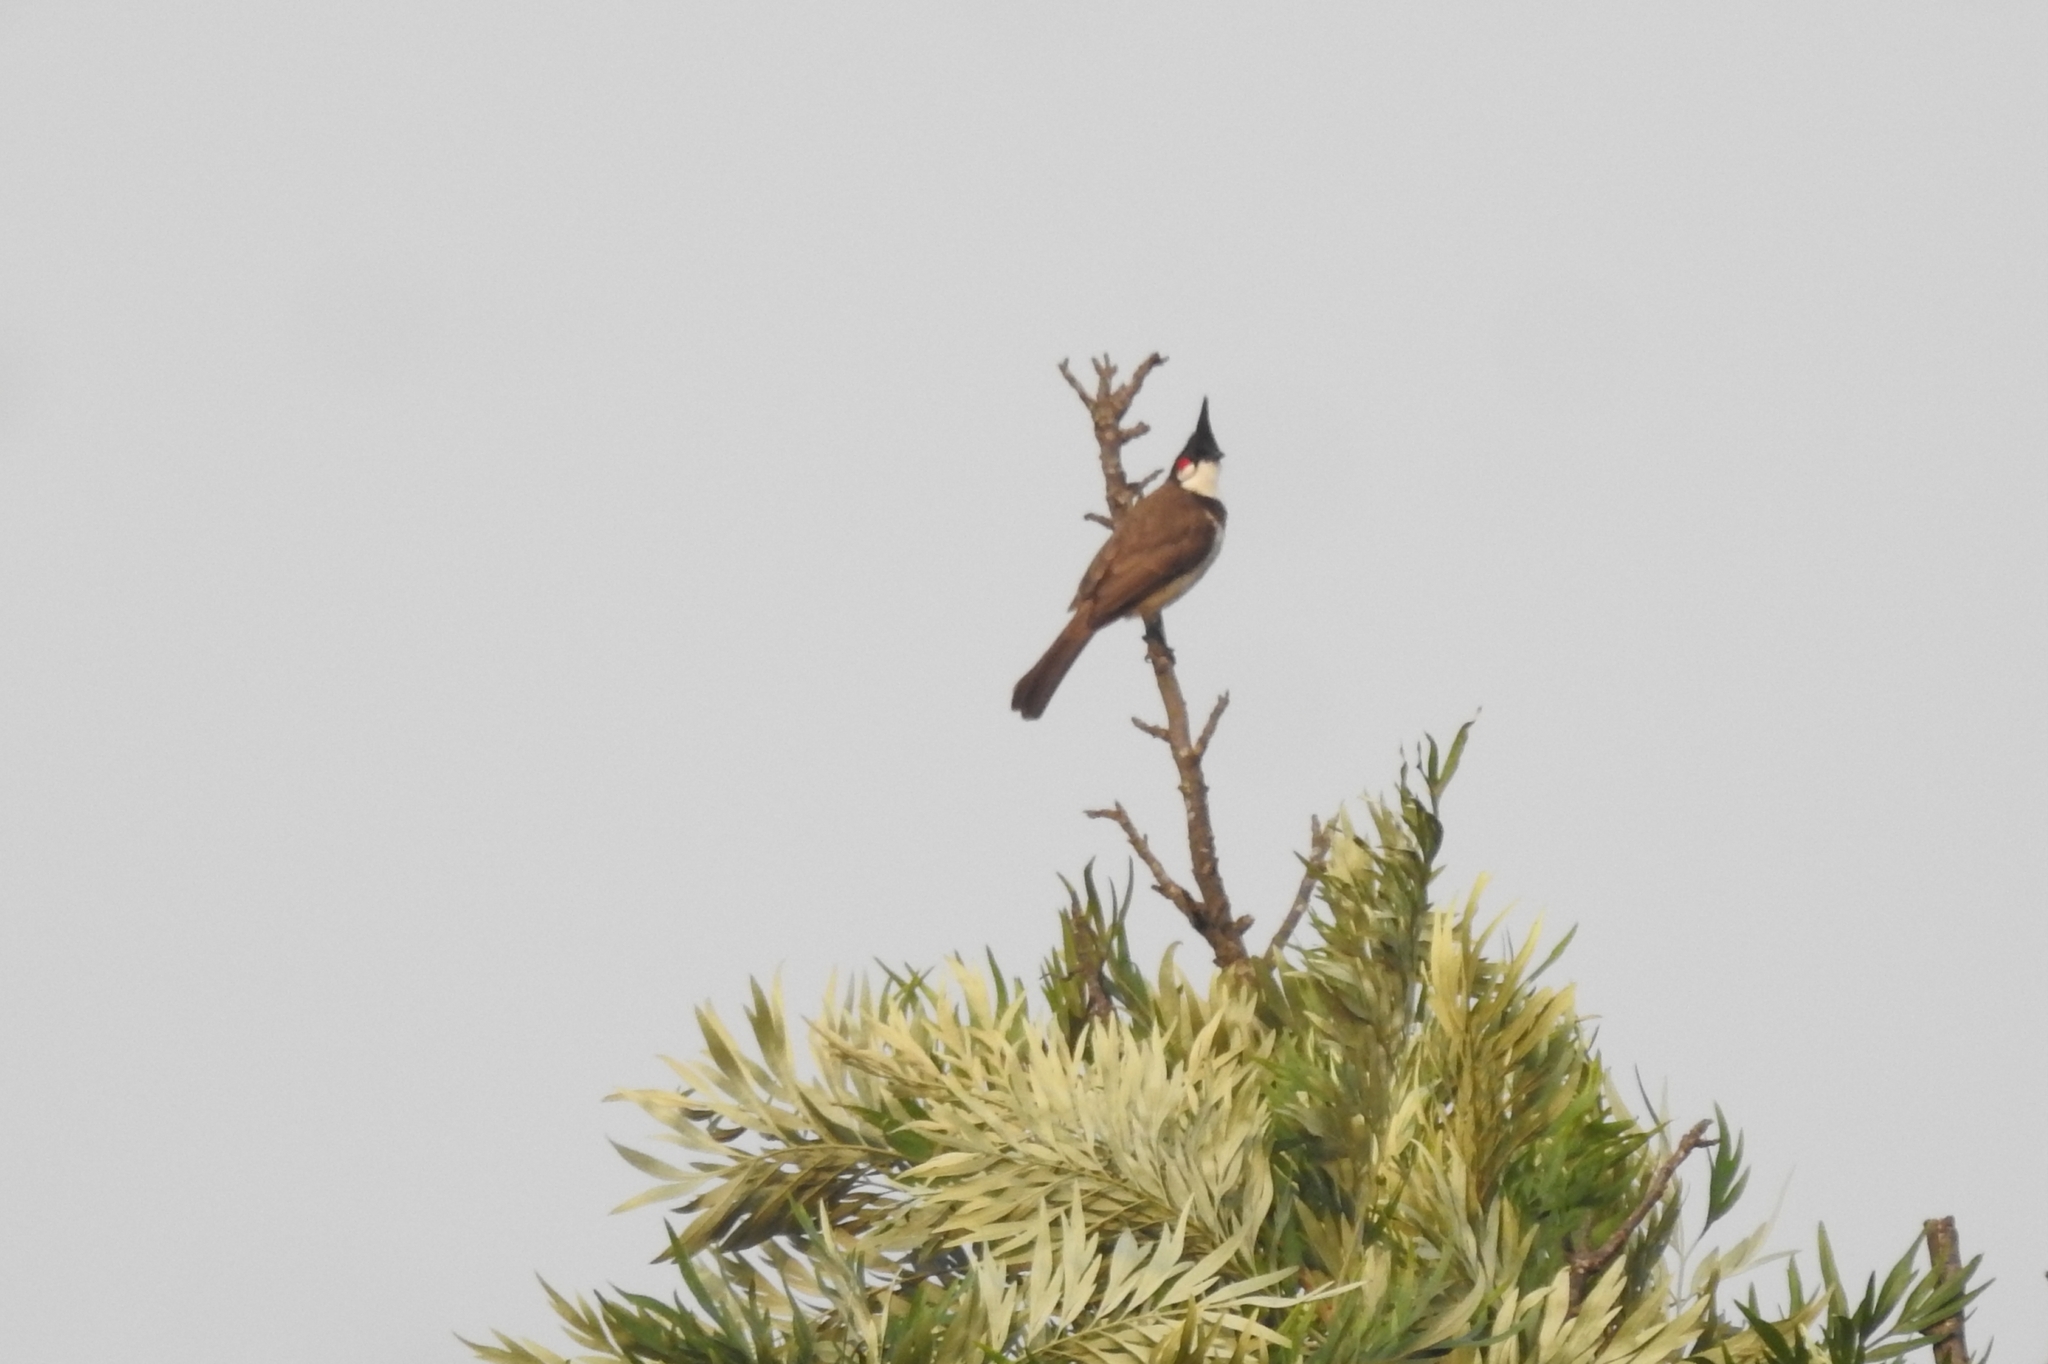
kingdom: Animalia
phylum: Chordata
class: Aves
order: Passeriformes
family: Pycnonotidae
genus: Pycnonotus
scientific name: Pycnonotus jocosus
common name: Red-whiskered bulbul
